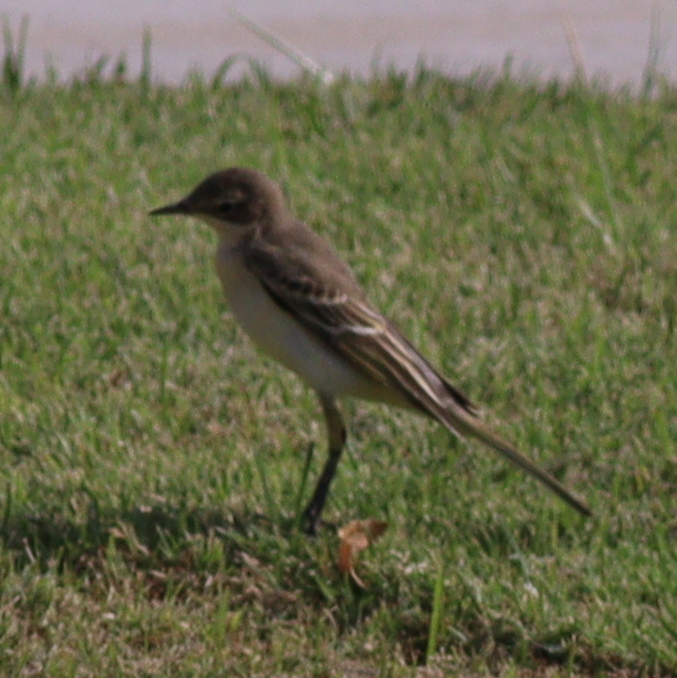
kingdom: Animalia
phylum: Chordata
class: Aves
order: Passeriformes
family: Motacillidae
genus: Motacilla
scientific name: Motacilla flava
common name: Western yellow wagtail
